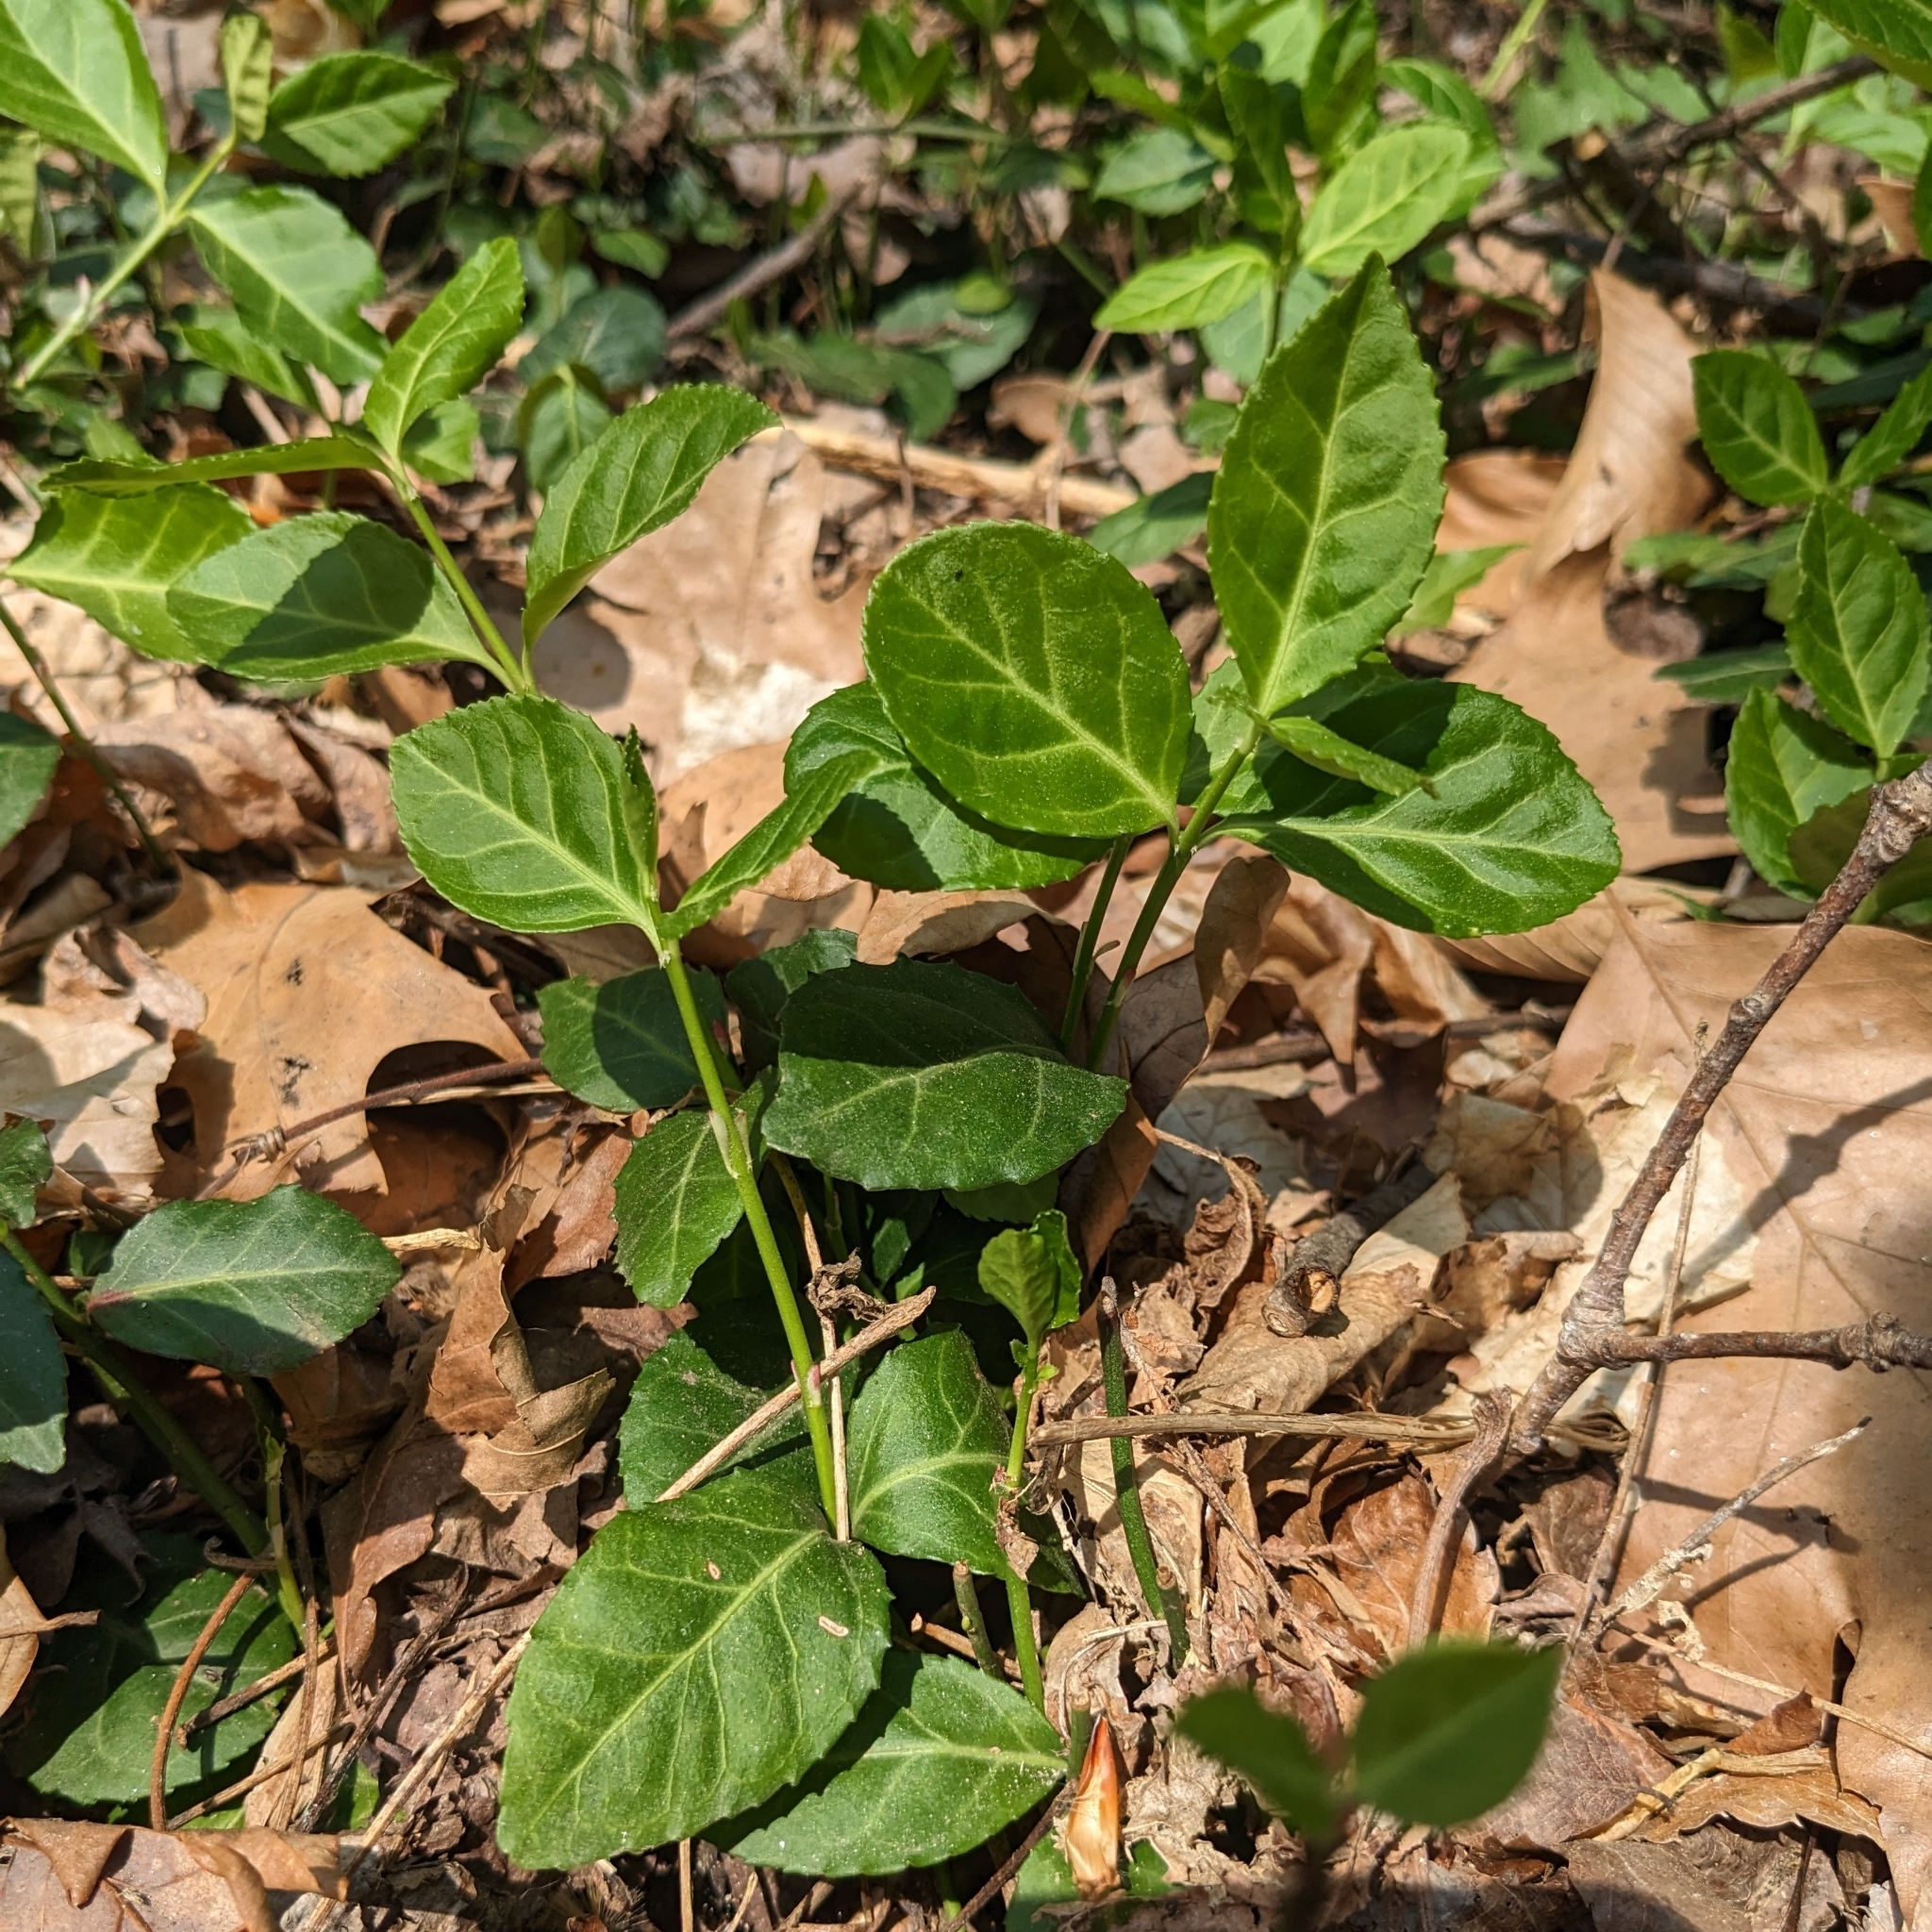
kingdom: Plantae
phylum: Tracheophyta
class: Magnoliopsida
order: Celastrales
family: Celastraceae
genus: Euonymus
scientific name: Euonymus fortunei
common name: Climbing euonymus
